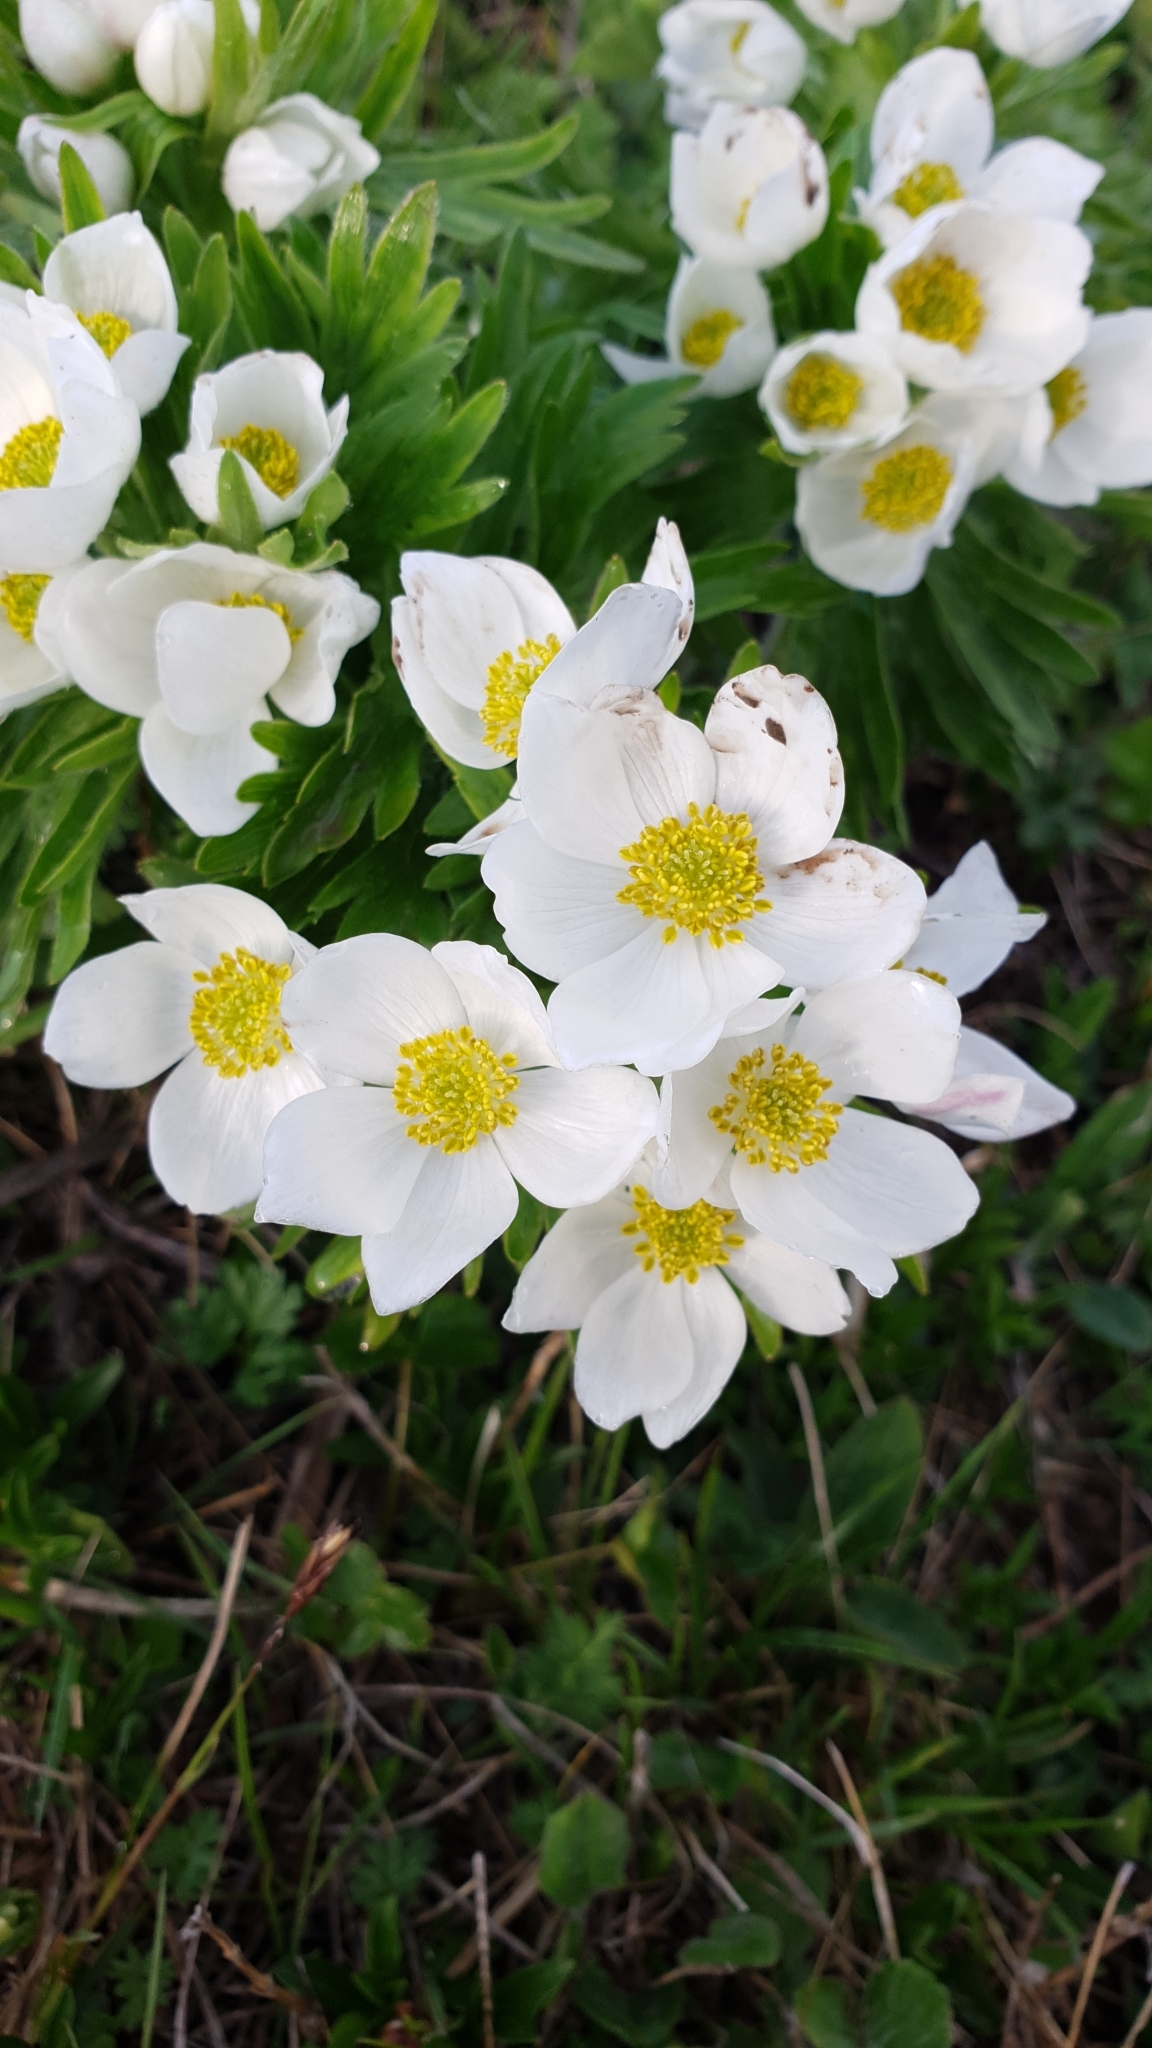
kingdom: Plantae
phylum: Tracheophyta
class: Magnoliopsida
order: Ranunculales
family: Ranunculaceae
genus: Anemonastrum
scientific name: Anemonastrum narcissiflorum
